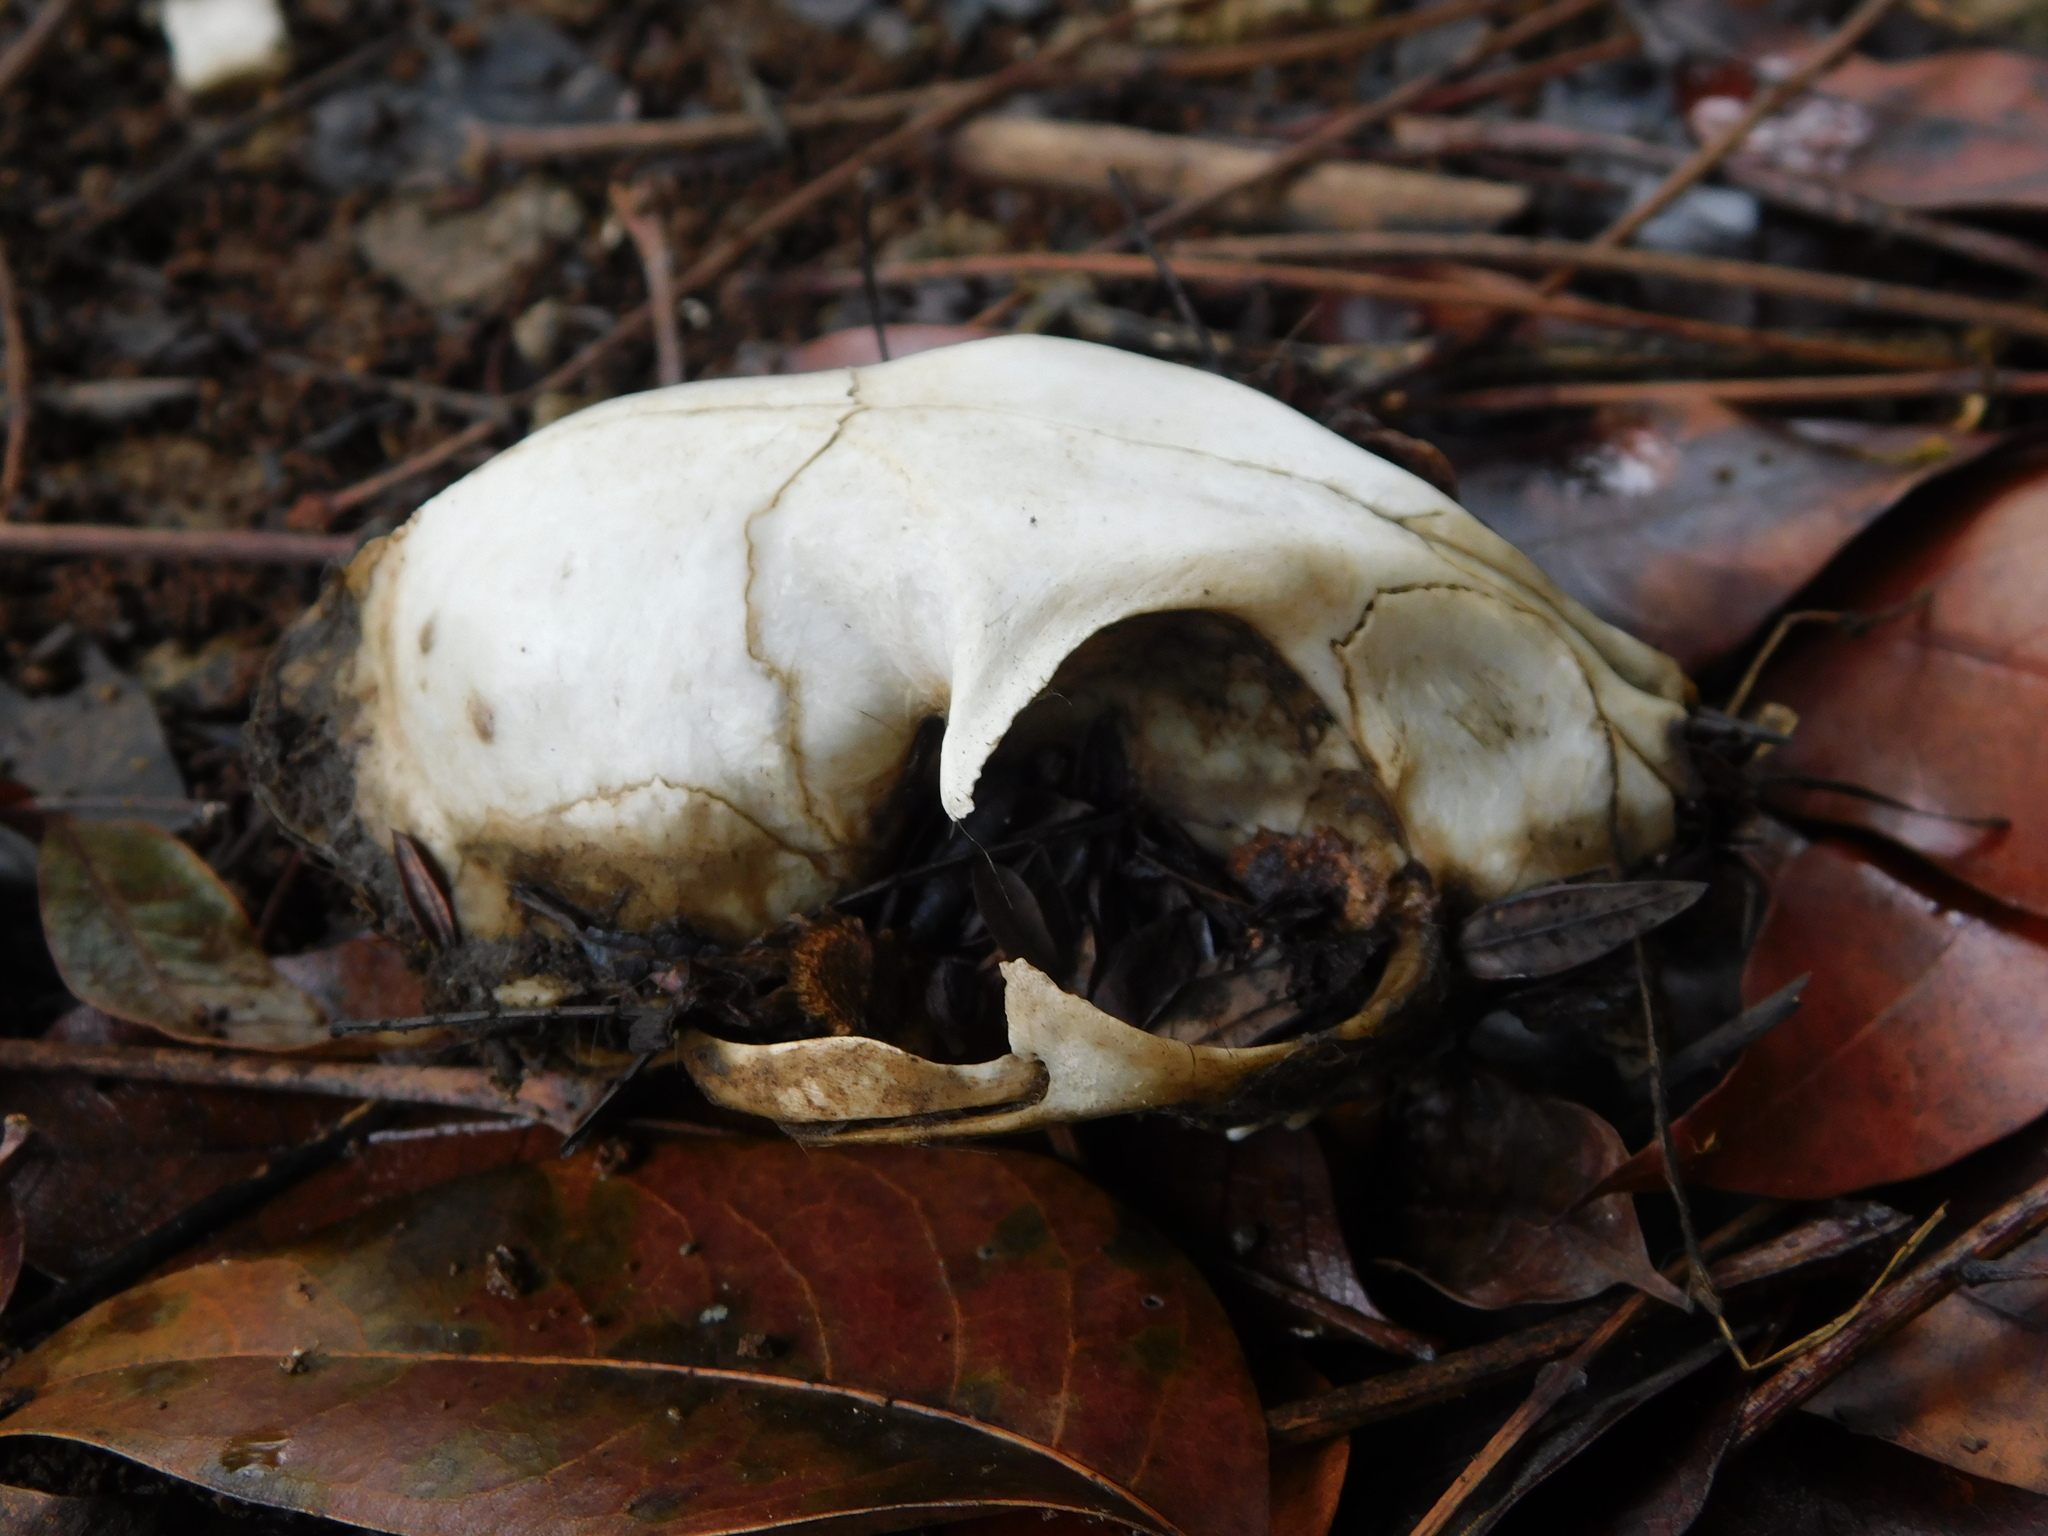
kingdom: Animalia
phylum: Chordata
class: Mammalia
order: Carnivora
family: Felidae
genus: Felis
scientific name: Felis catus
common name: Domestic cat
